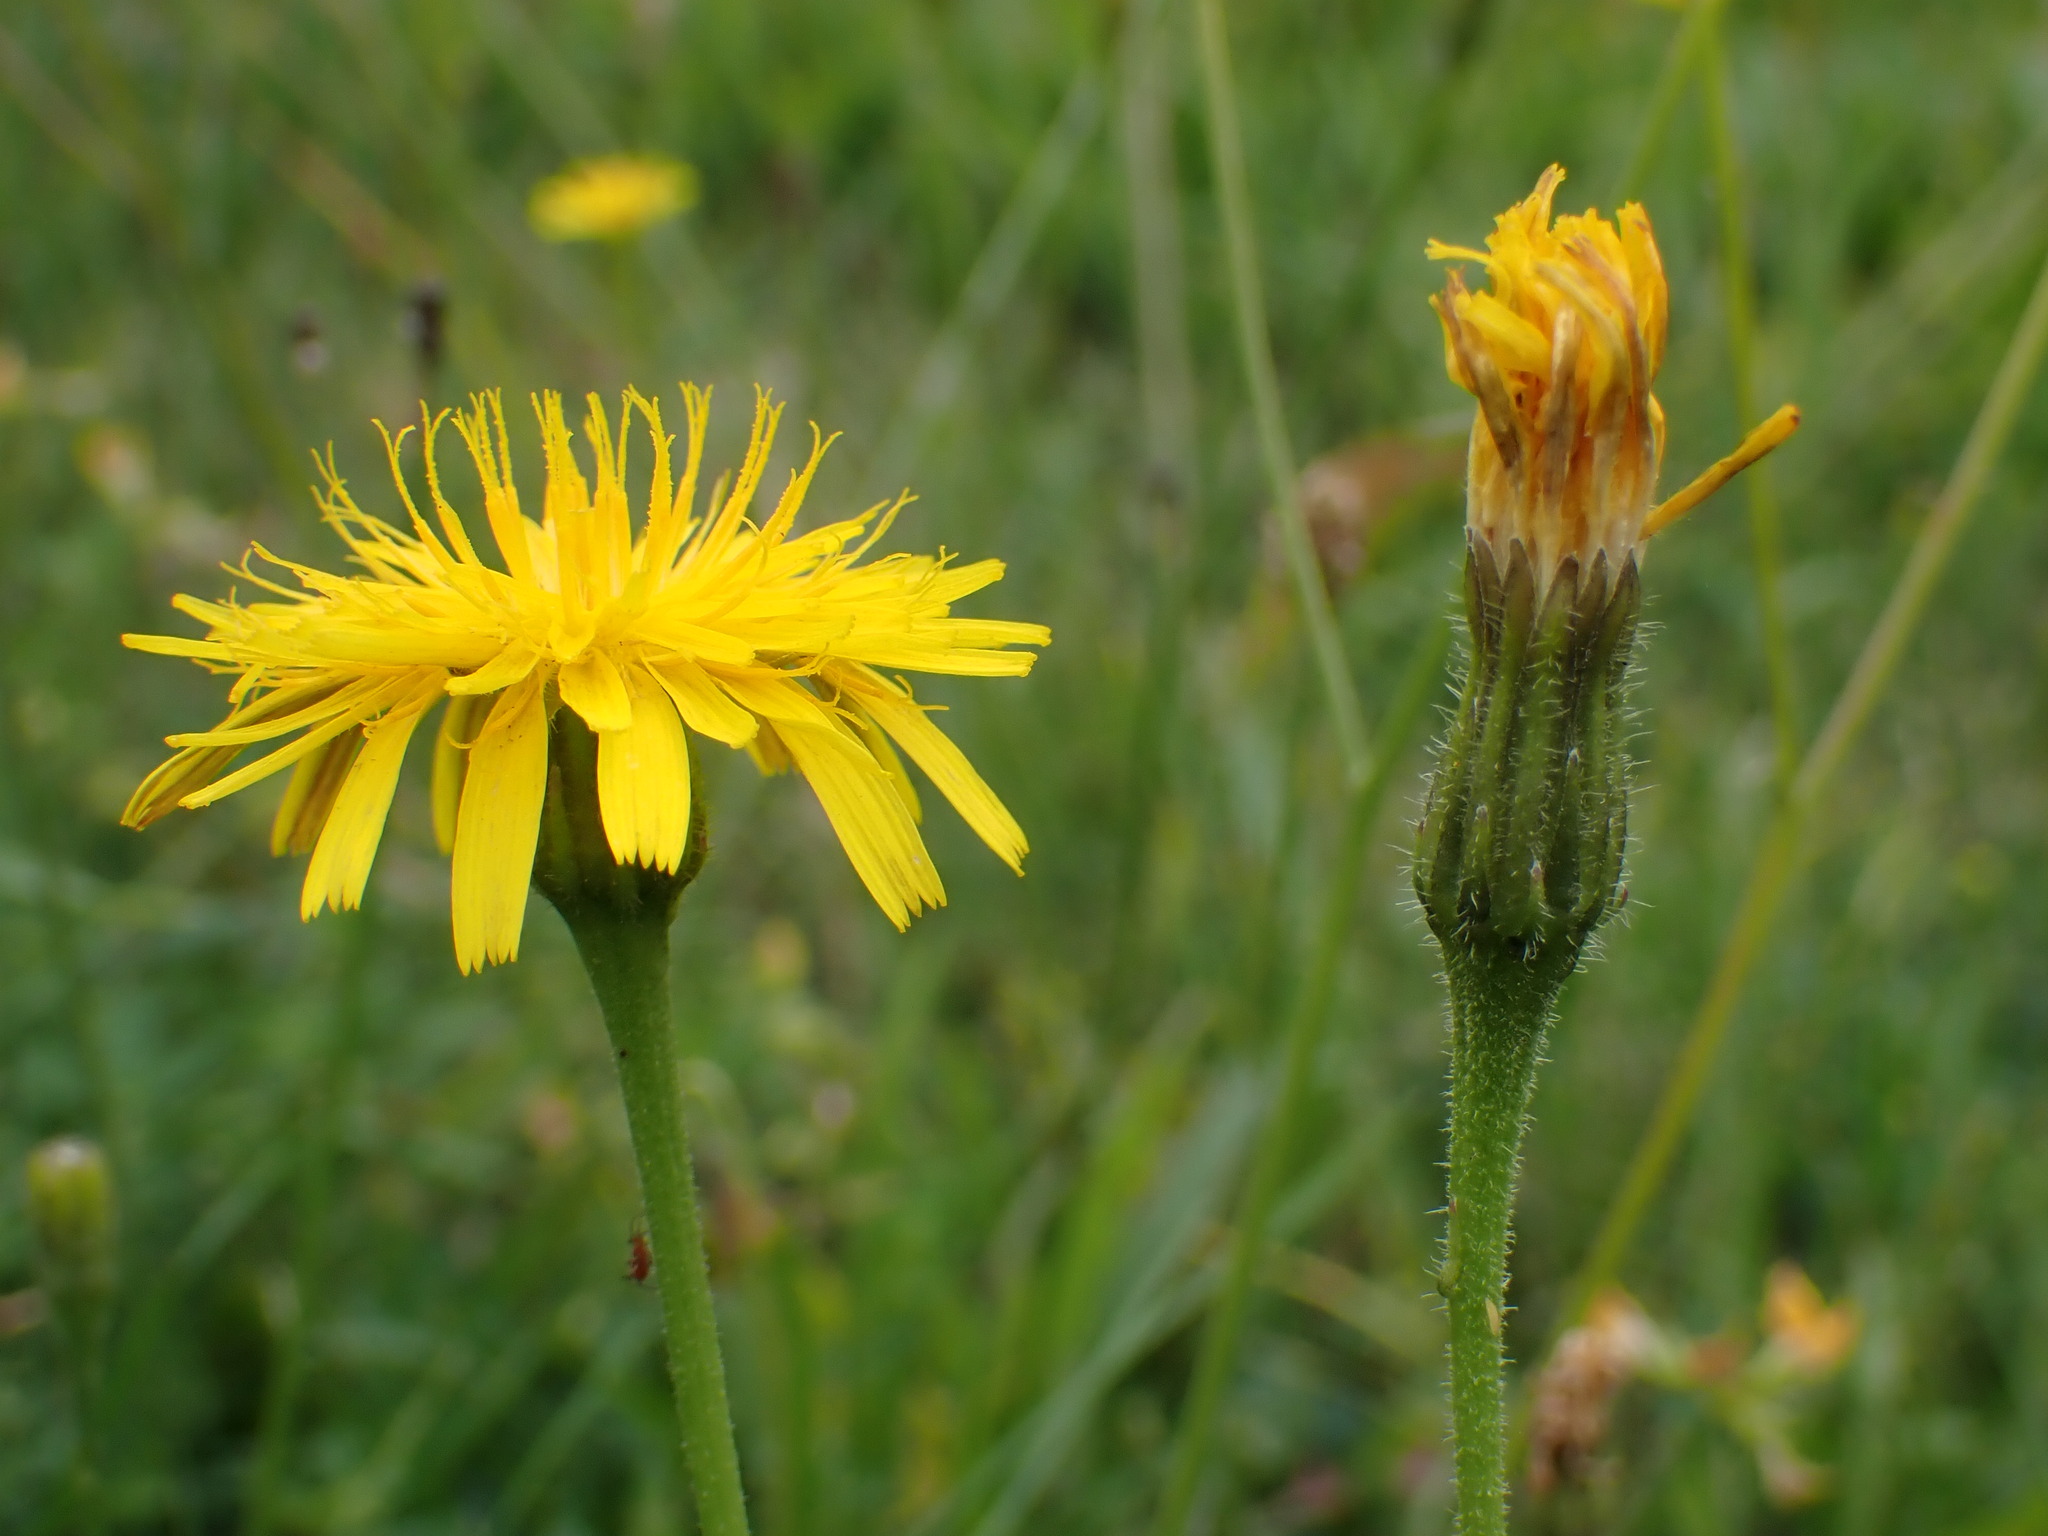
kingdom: Plantae
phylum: Tracheophyta
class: Magnoliopsida
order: Asterales
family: Asteraceae
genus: Leontodon
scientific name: Leontodon hispidus
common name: Rough hawkbit
